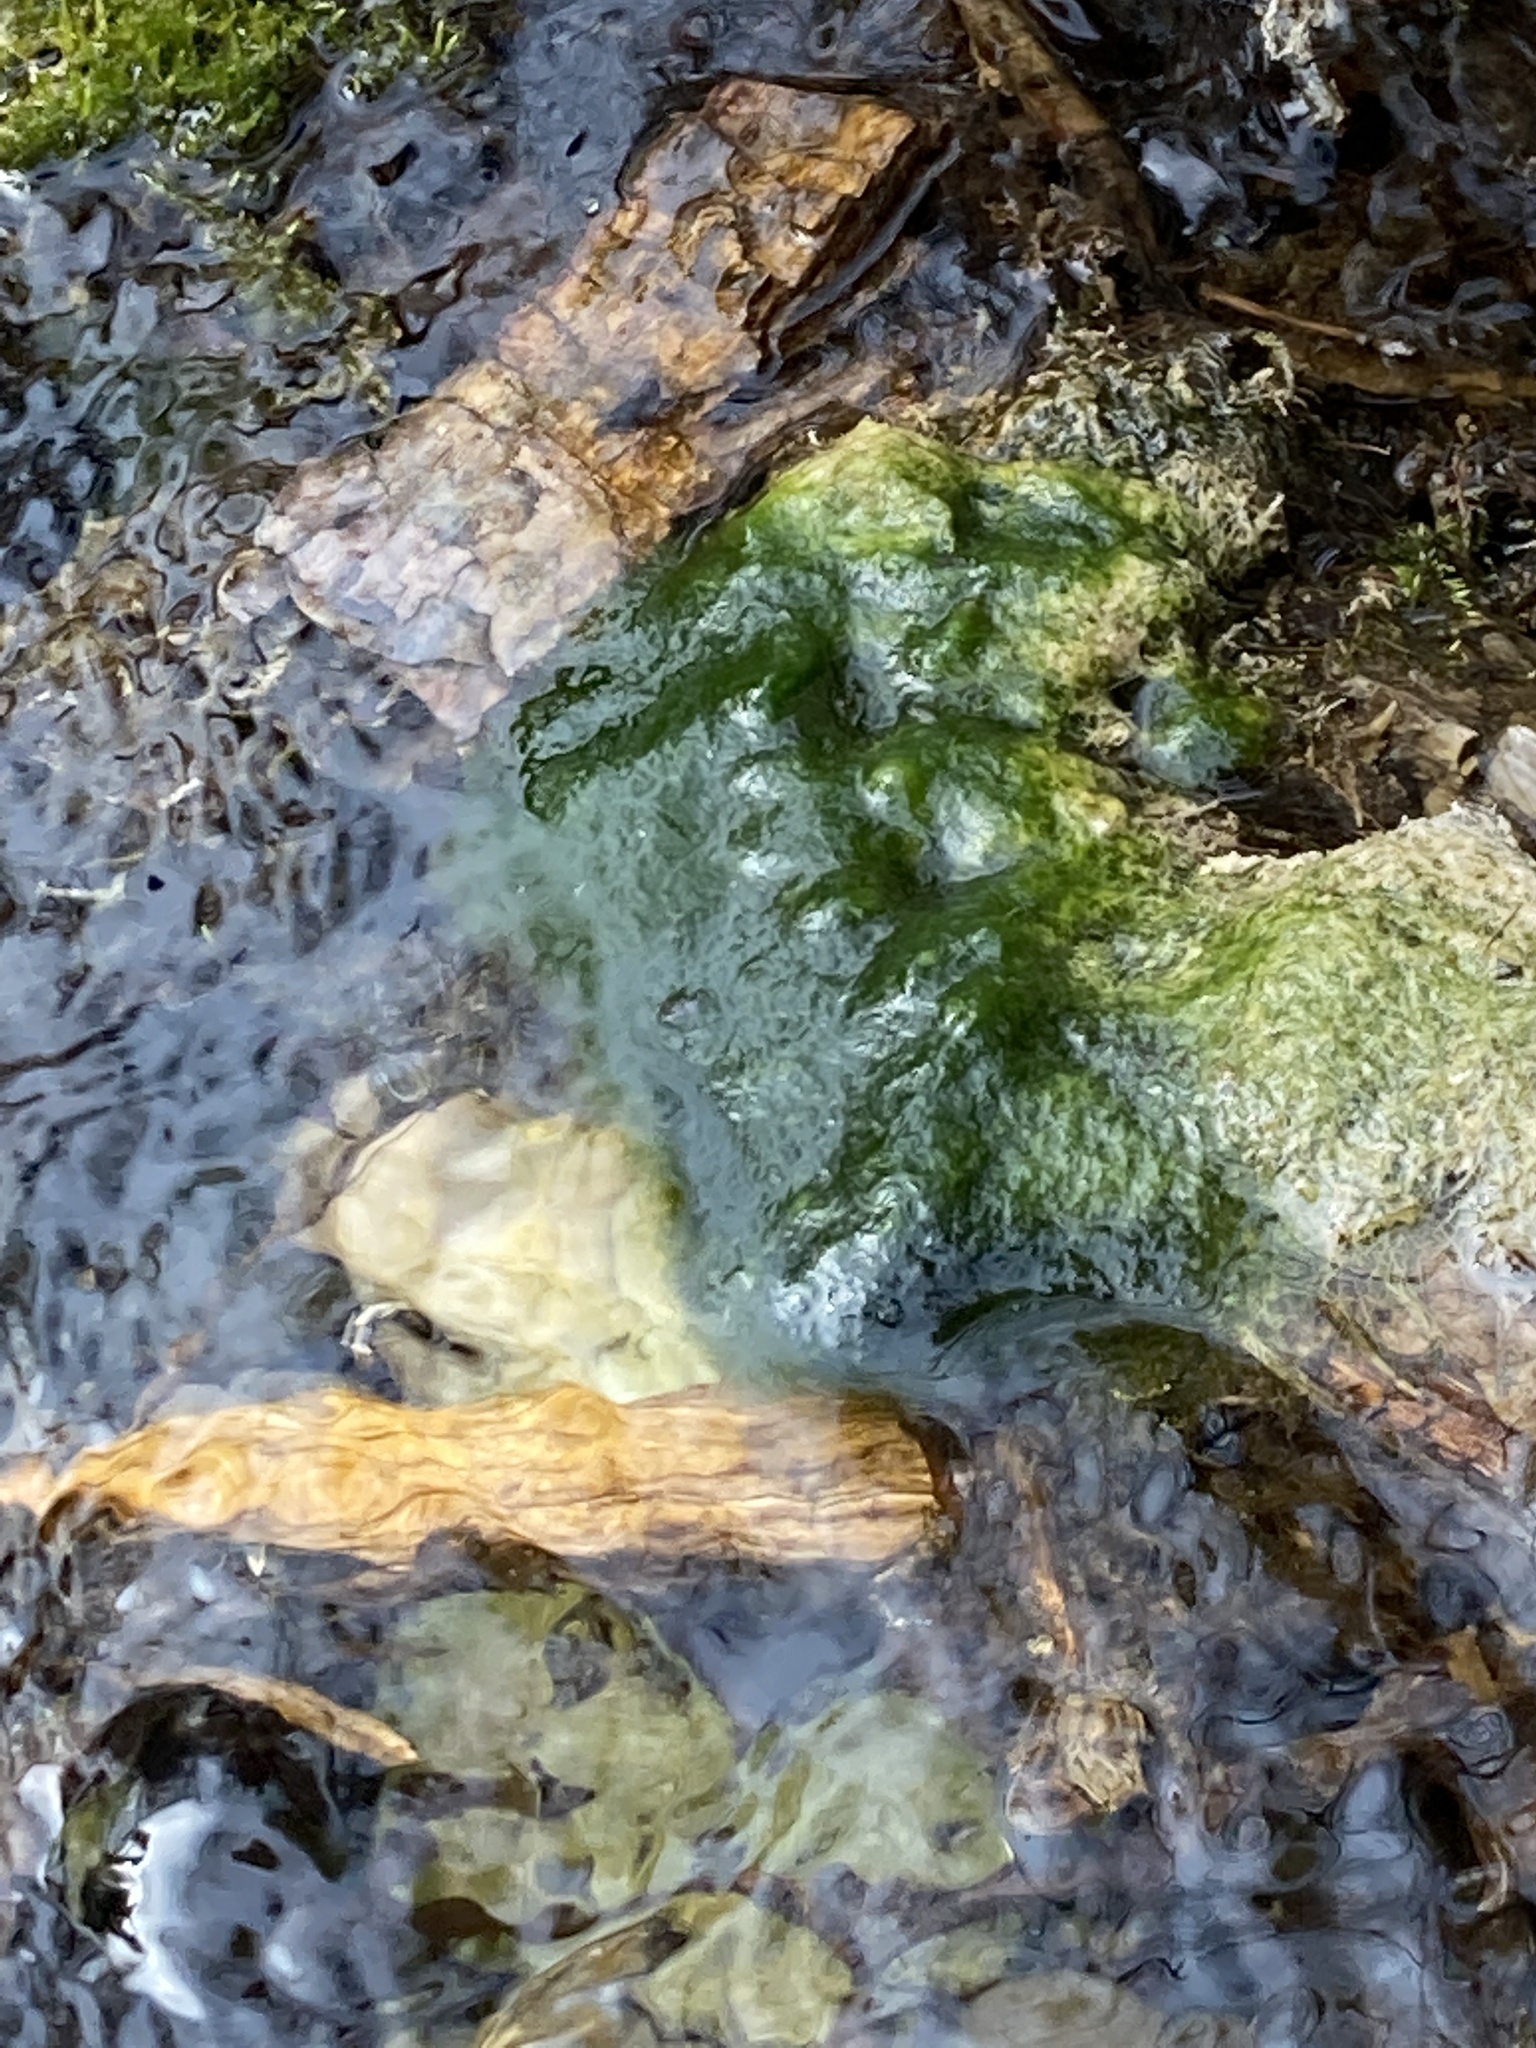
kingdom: Chromista
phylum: Ochrophyta
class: Xanthophyceae
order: Vaucheriales
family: Vaucheriaceae
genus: Vaucheria
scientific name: Vaucheria
